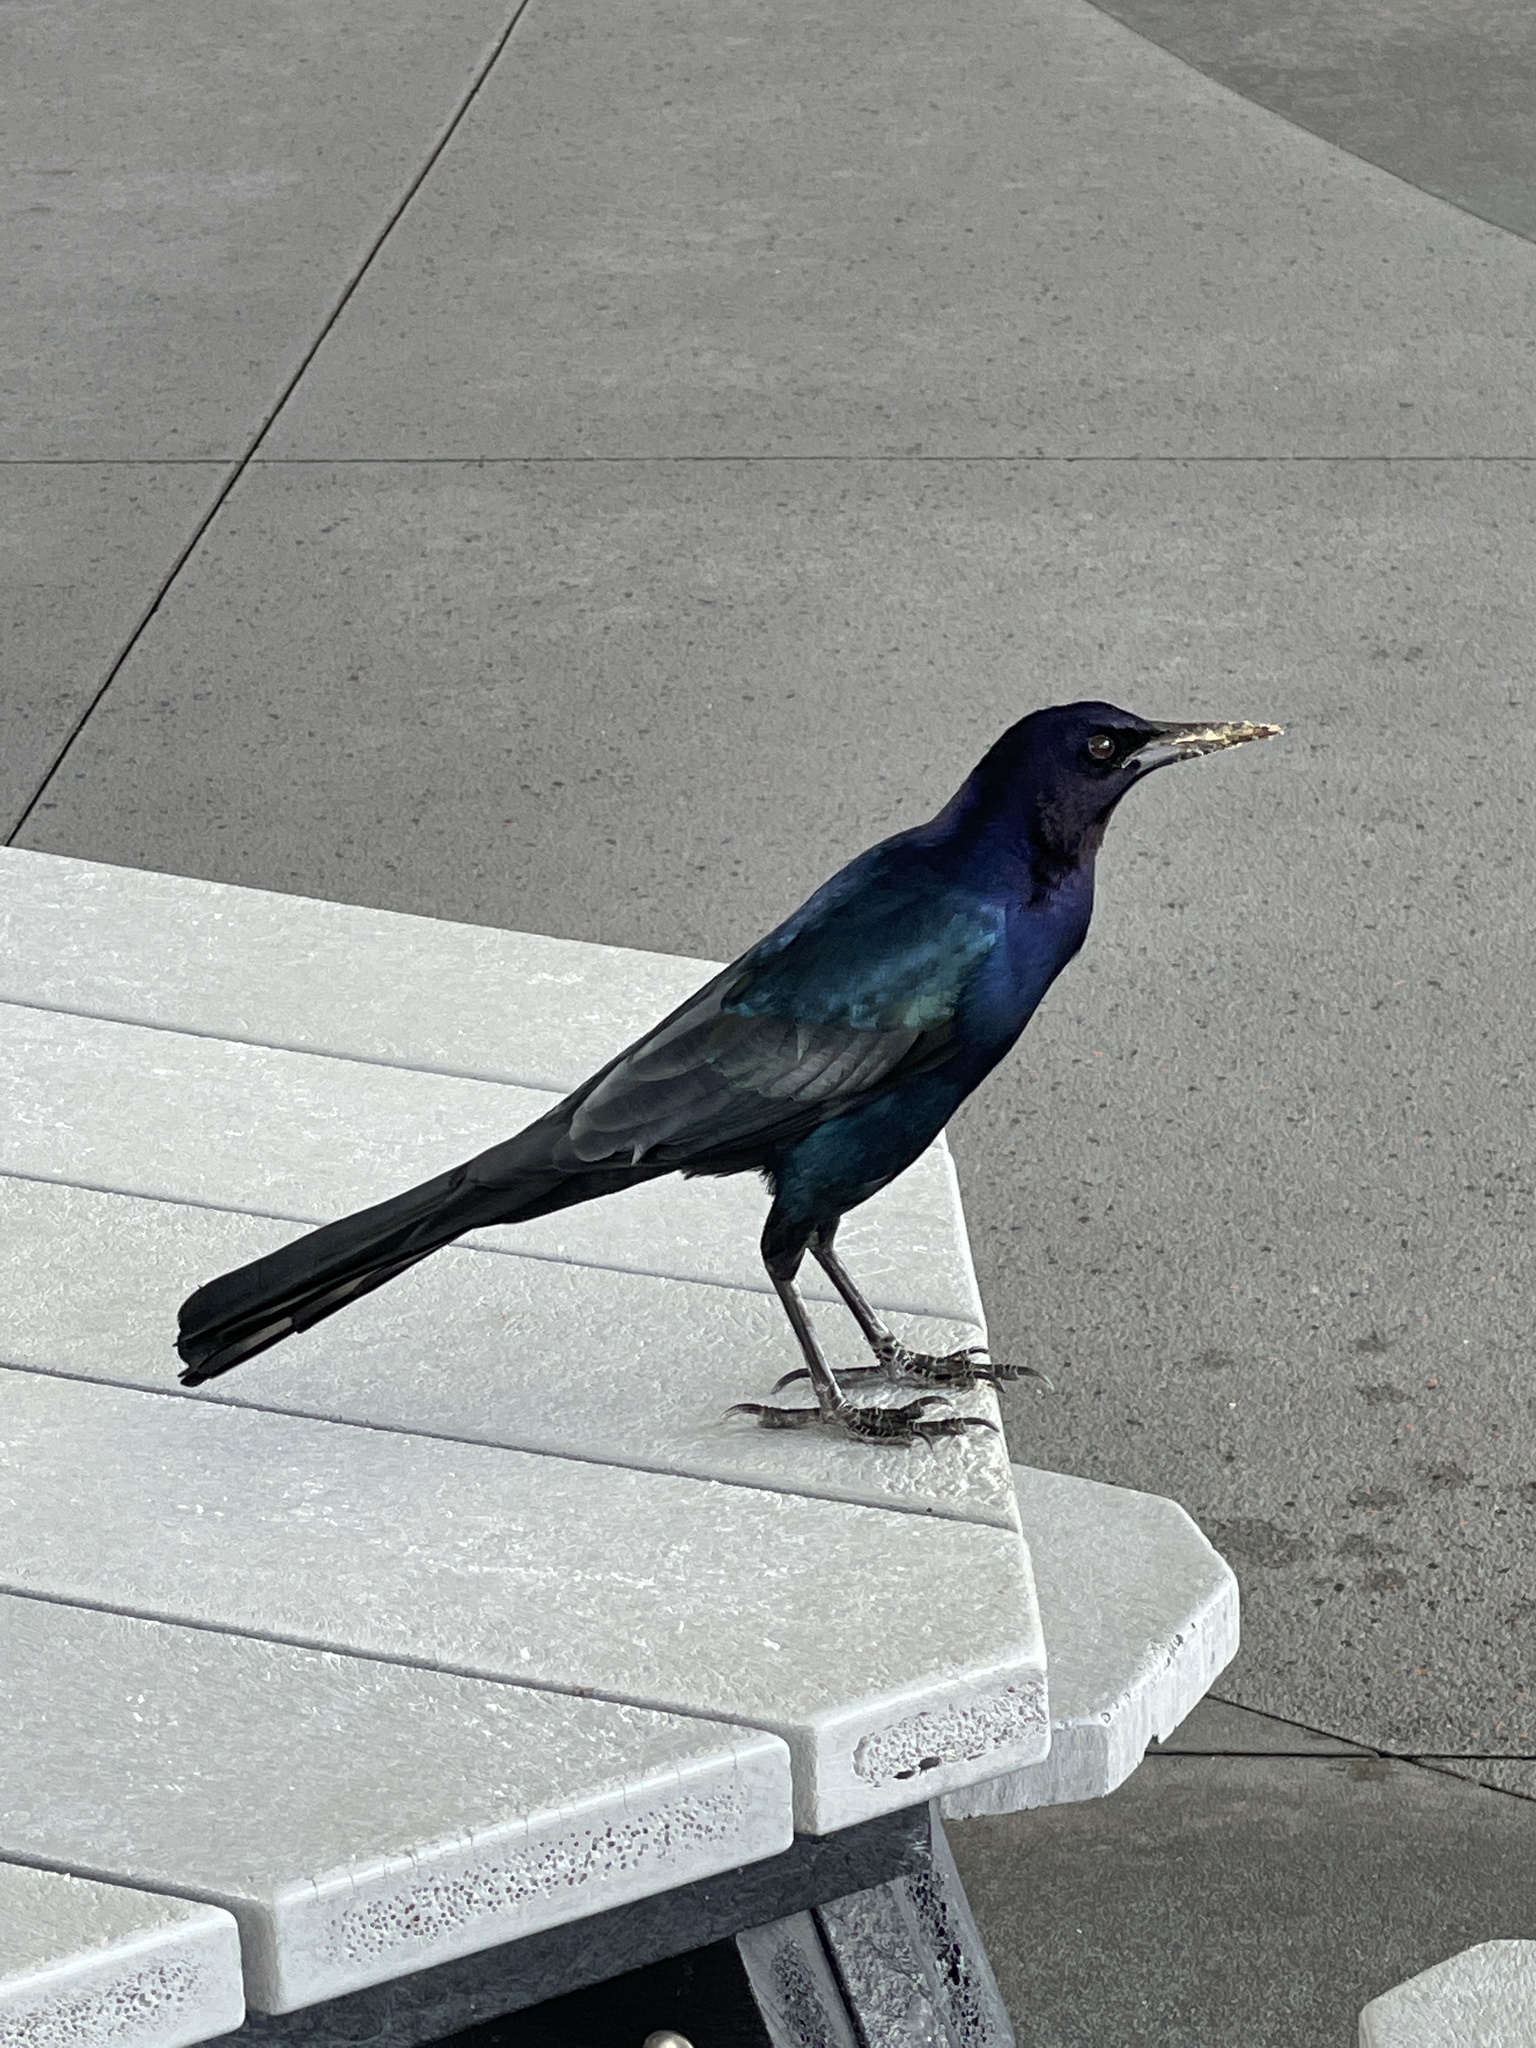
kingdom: Animalia
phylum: Chordata
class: Aves
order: Passeriformes
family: Icteridae
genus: Quiscalus
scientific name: Quiscalus major
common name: Boat-tailed grackle
